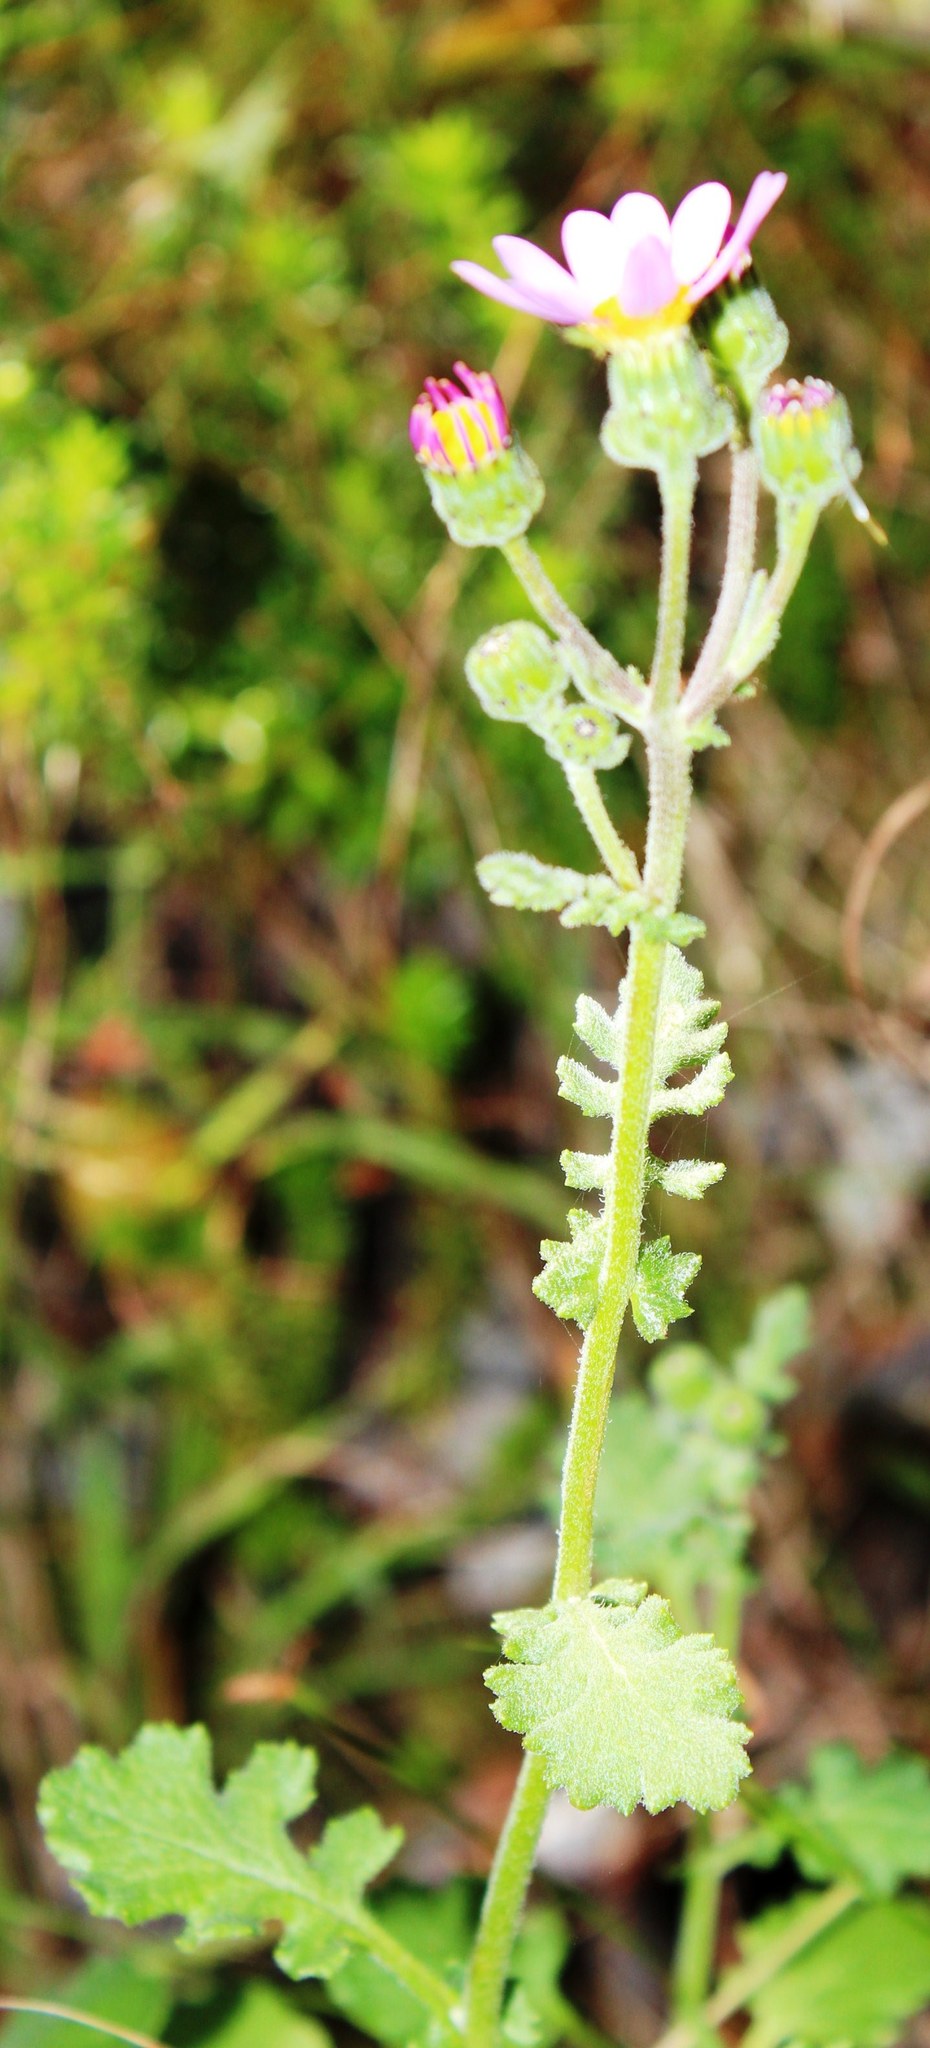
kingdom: Plantae
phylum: Tracheophyta
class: Magnoliopsida
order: Asterales
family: Asteraceae
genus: Senecio
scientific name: Senecio elegans
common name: Purple groundsel
